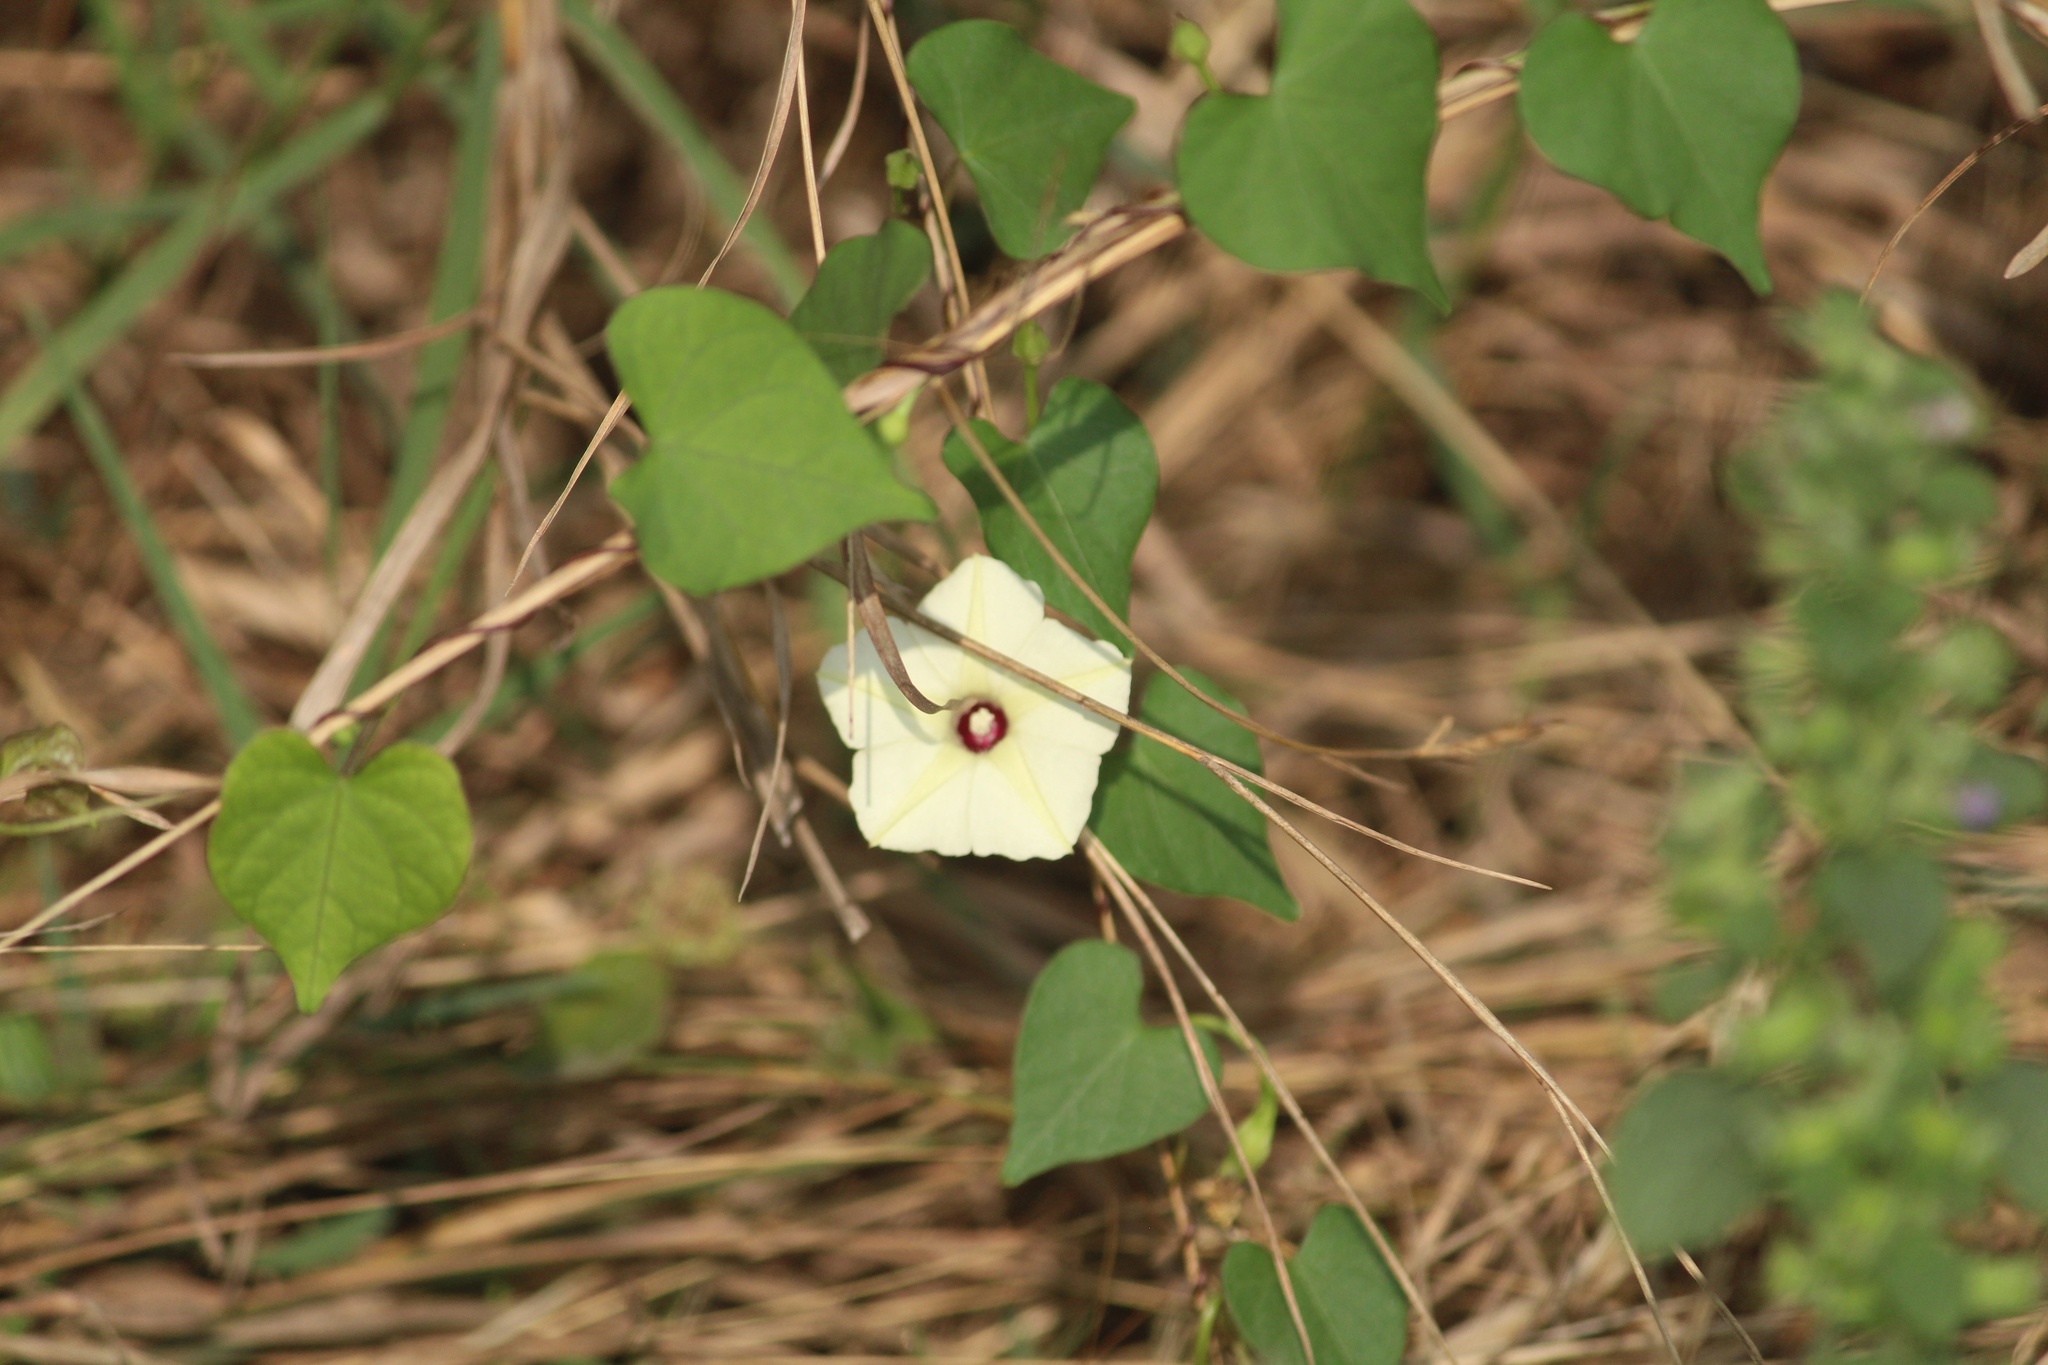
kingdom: Plantae
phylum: Tracheophyta
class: Magnoliopsida
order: Solanales
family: Convolvulaceae
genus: Ipomoea
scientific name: Ipomoea obscura
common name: Obscure morning-glory
